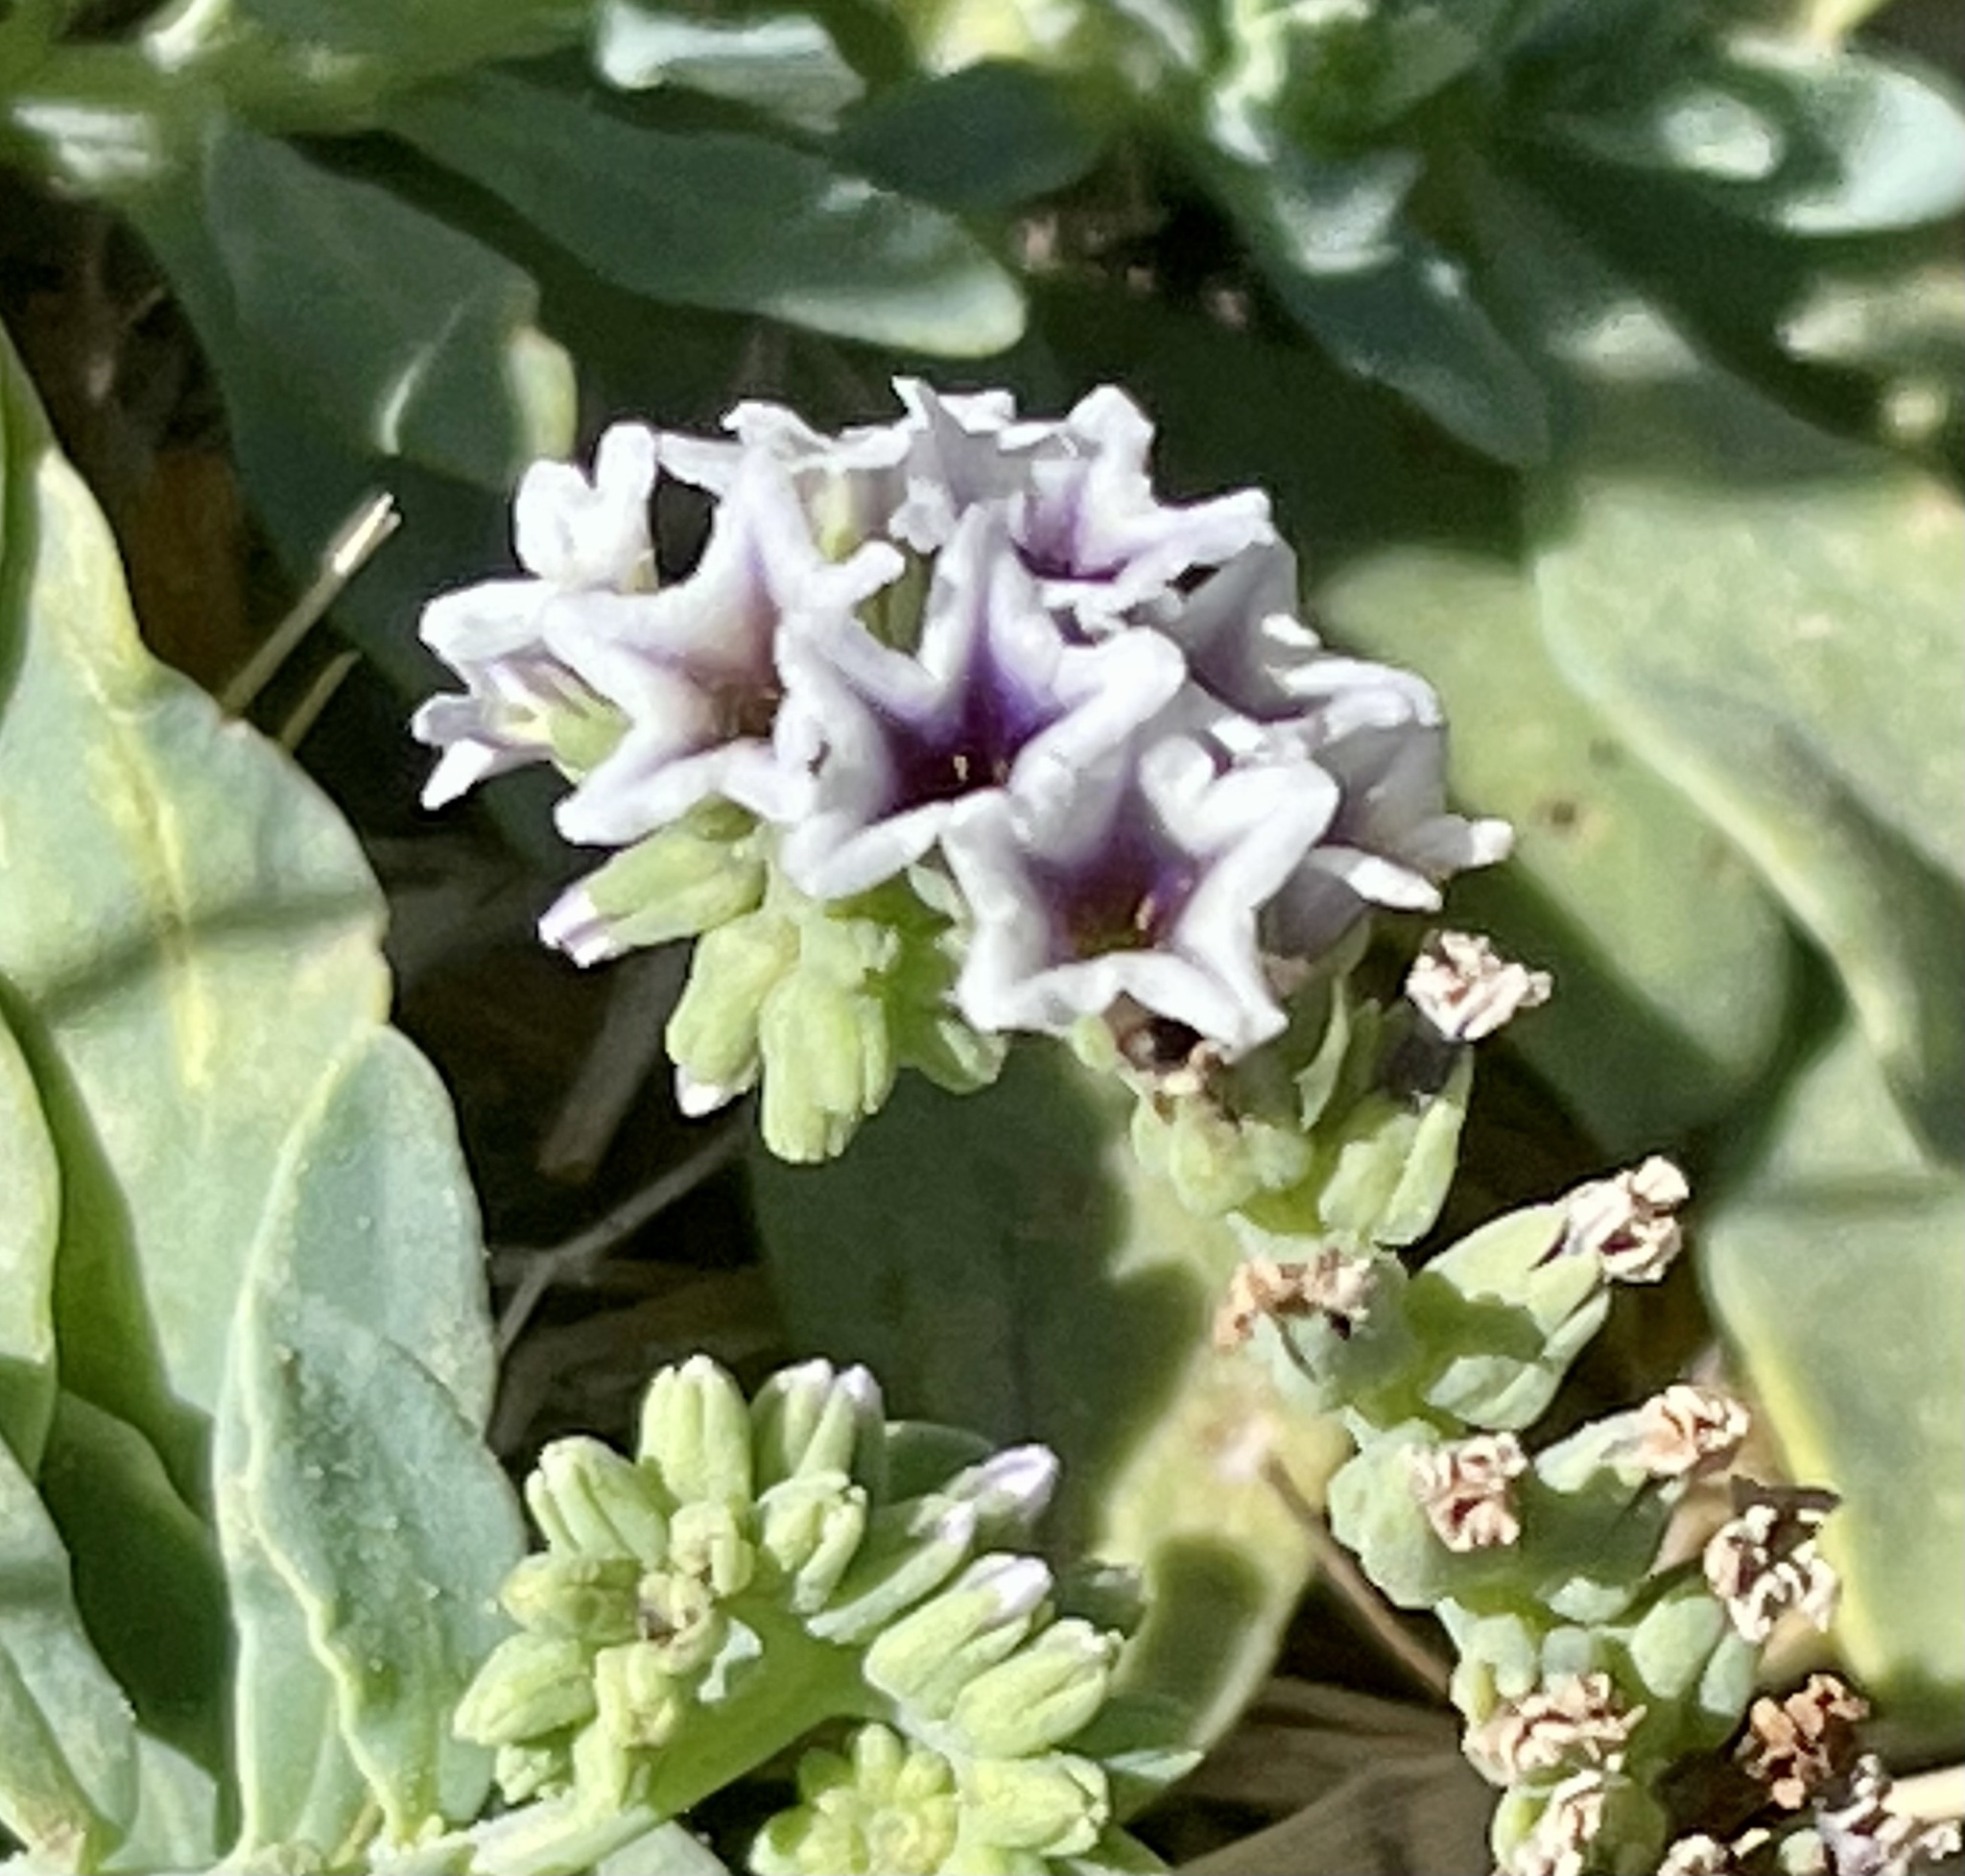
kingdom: Plantae
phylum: Tracheophyta
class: Magnoliopsida
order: Boraginales
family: Heliotropiaceae
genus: Heliotropium
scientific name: Heliotropium curassavicum
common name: Seaside heliotrope
